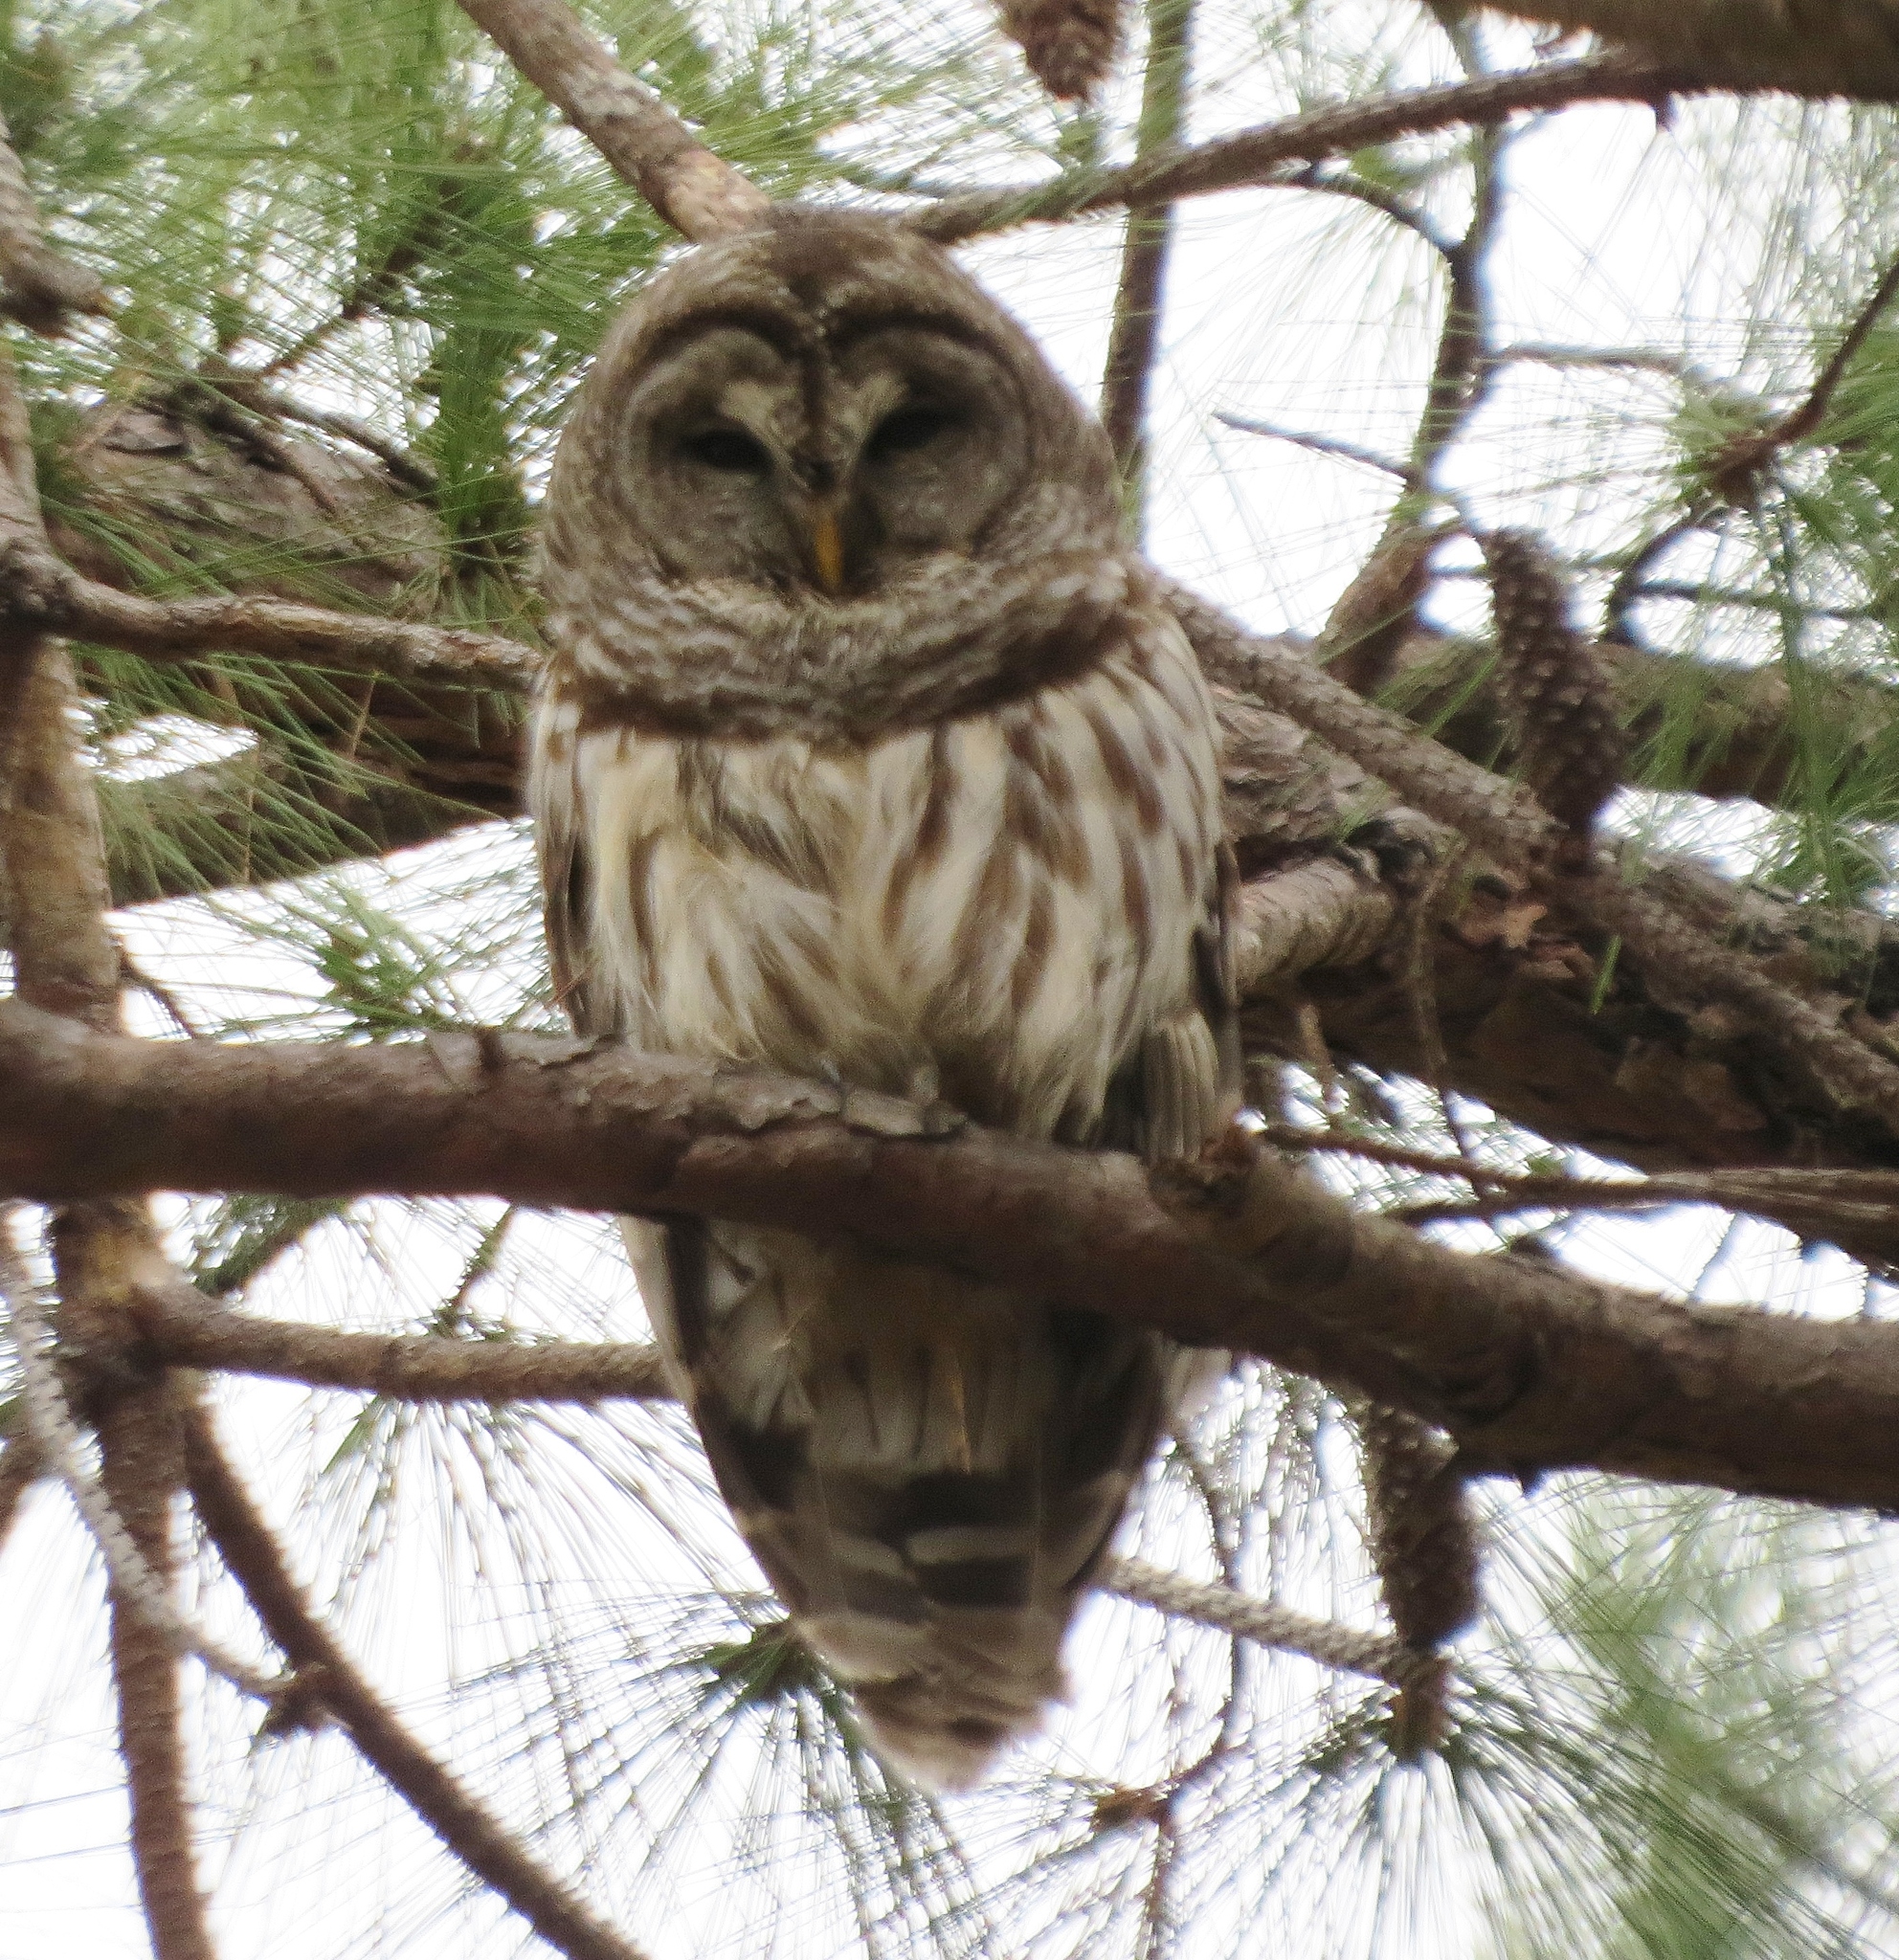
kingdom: Animalia
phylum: Chordata
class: Aves
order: Strigiformes
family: Strigidae
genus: Strix
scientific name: Strix varia
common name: Barred owl
